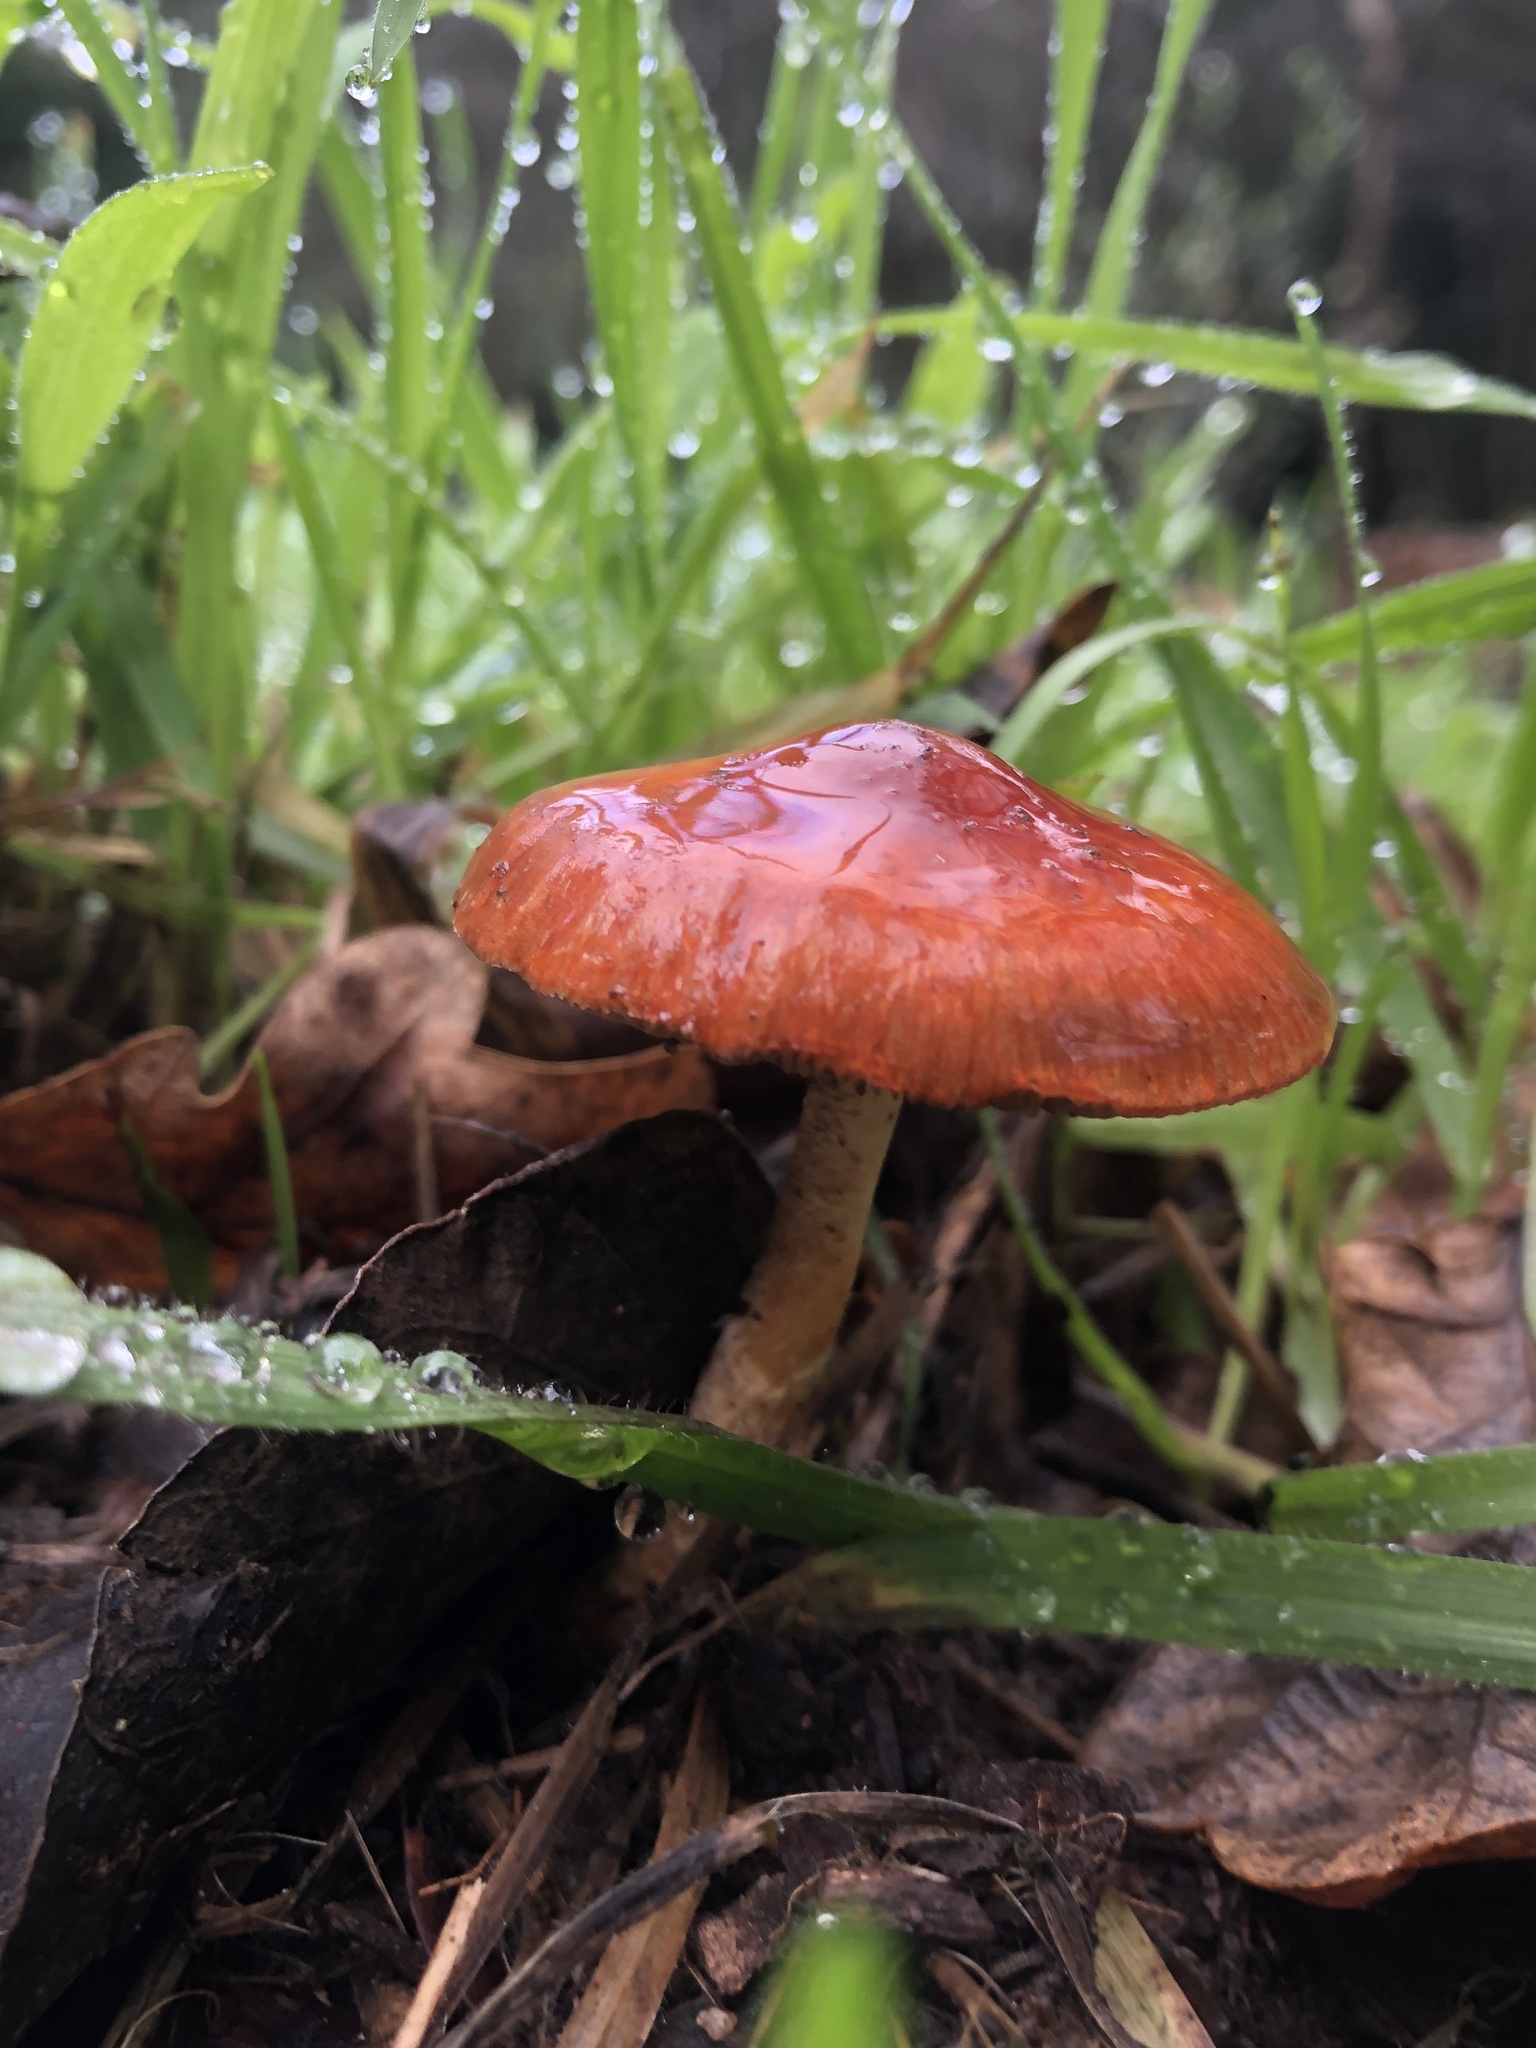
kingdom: Fungi
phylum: Basidiomycota
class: Agaricomycetes
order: Agaricales
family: Strophariaceae
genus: Leratiomyces
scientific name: Leratiomyces ceres
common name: Redlead roundhead
